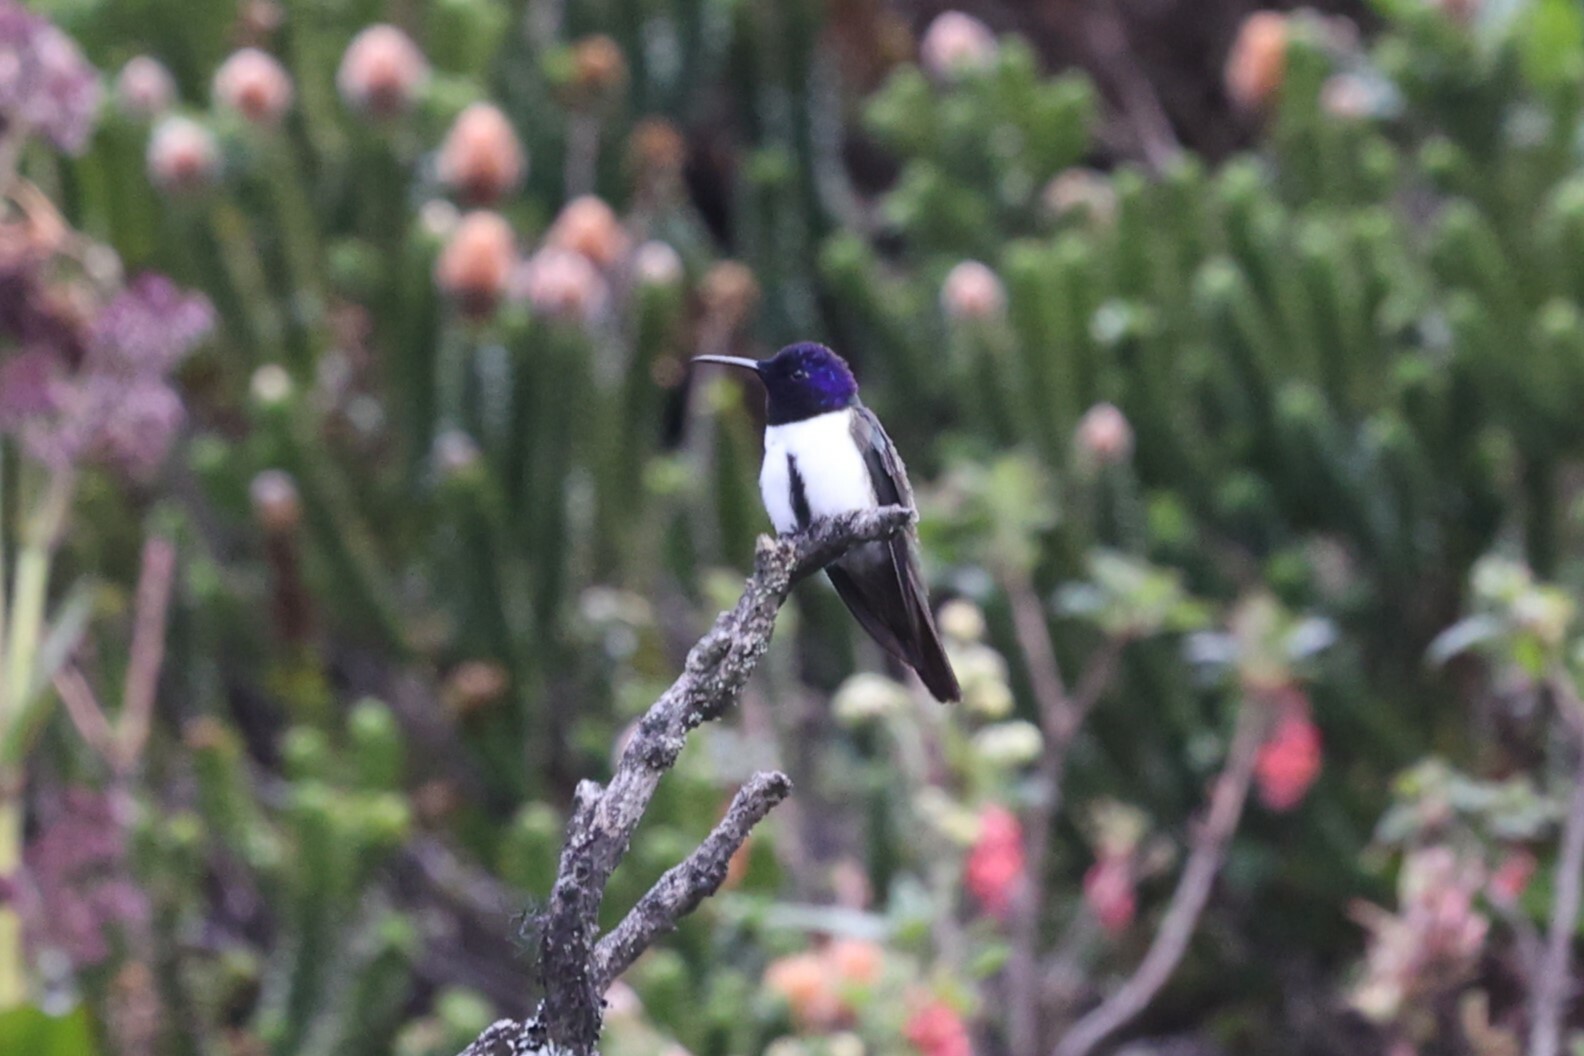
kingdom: Animalia
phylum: Chordata
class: Aves
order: Apodiformes
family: Trochilidae
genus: Oreotrochilus
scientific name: Oreotrochilus chimborazo
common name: Ecuadorian hillstar
